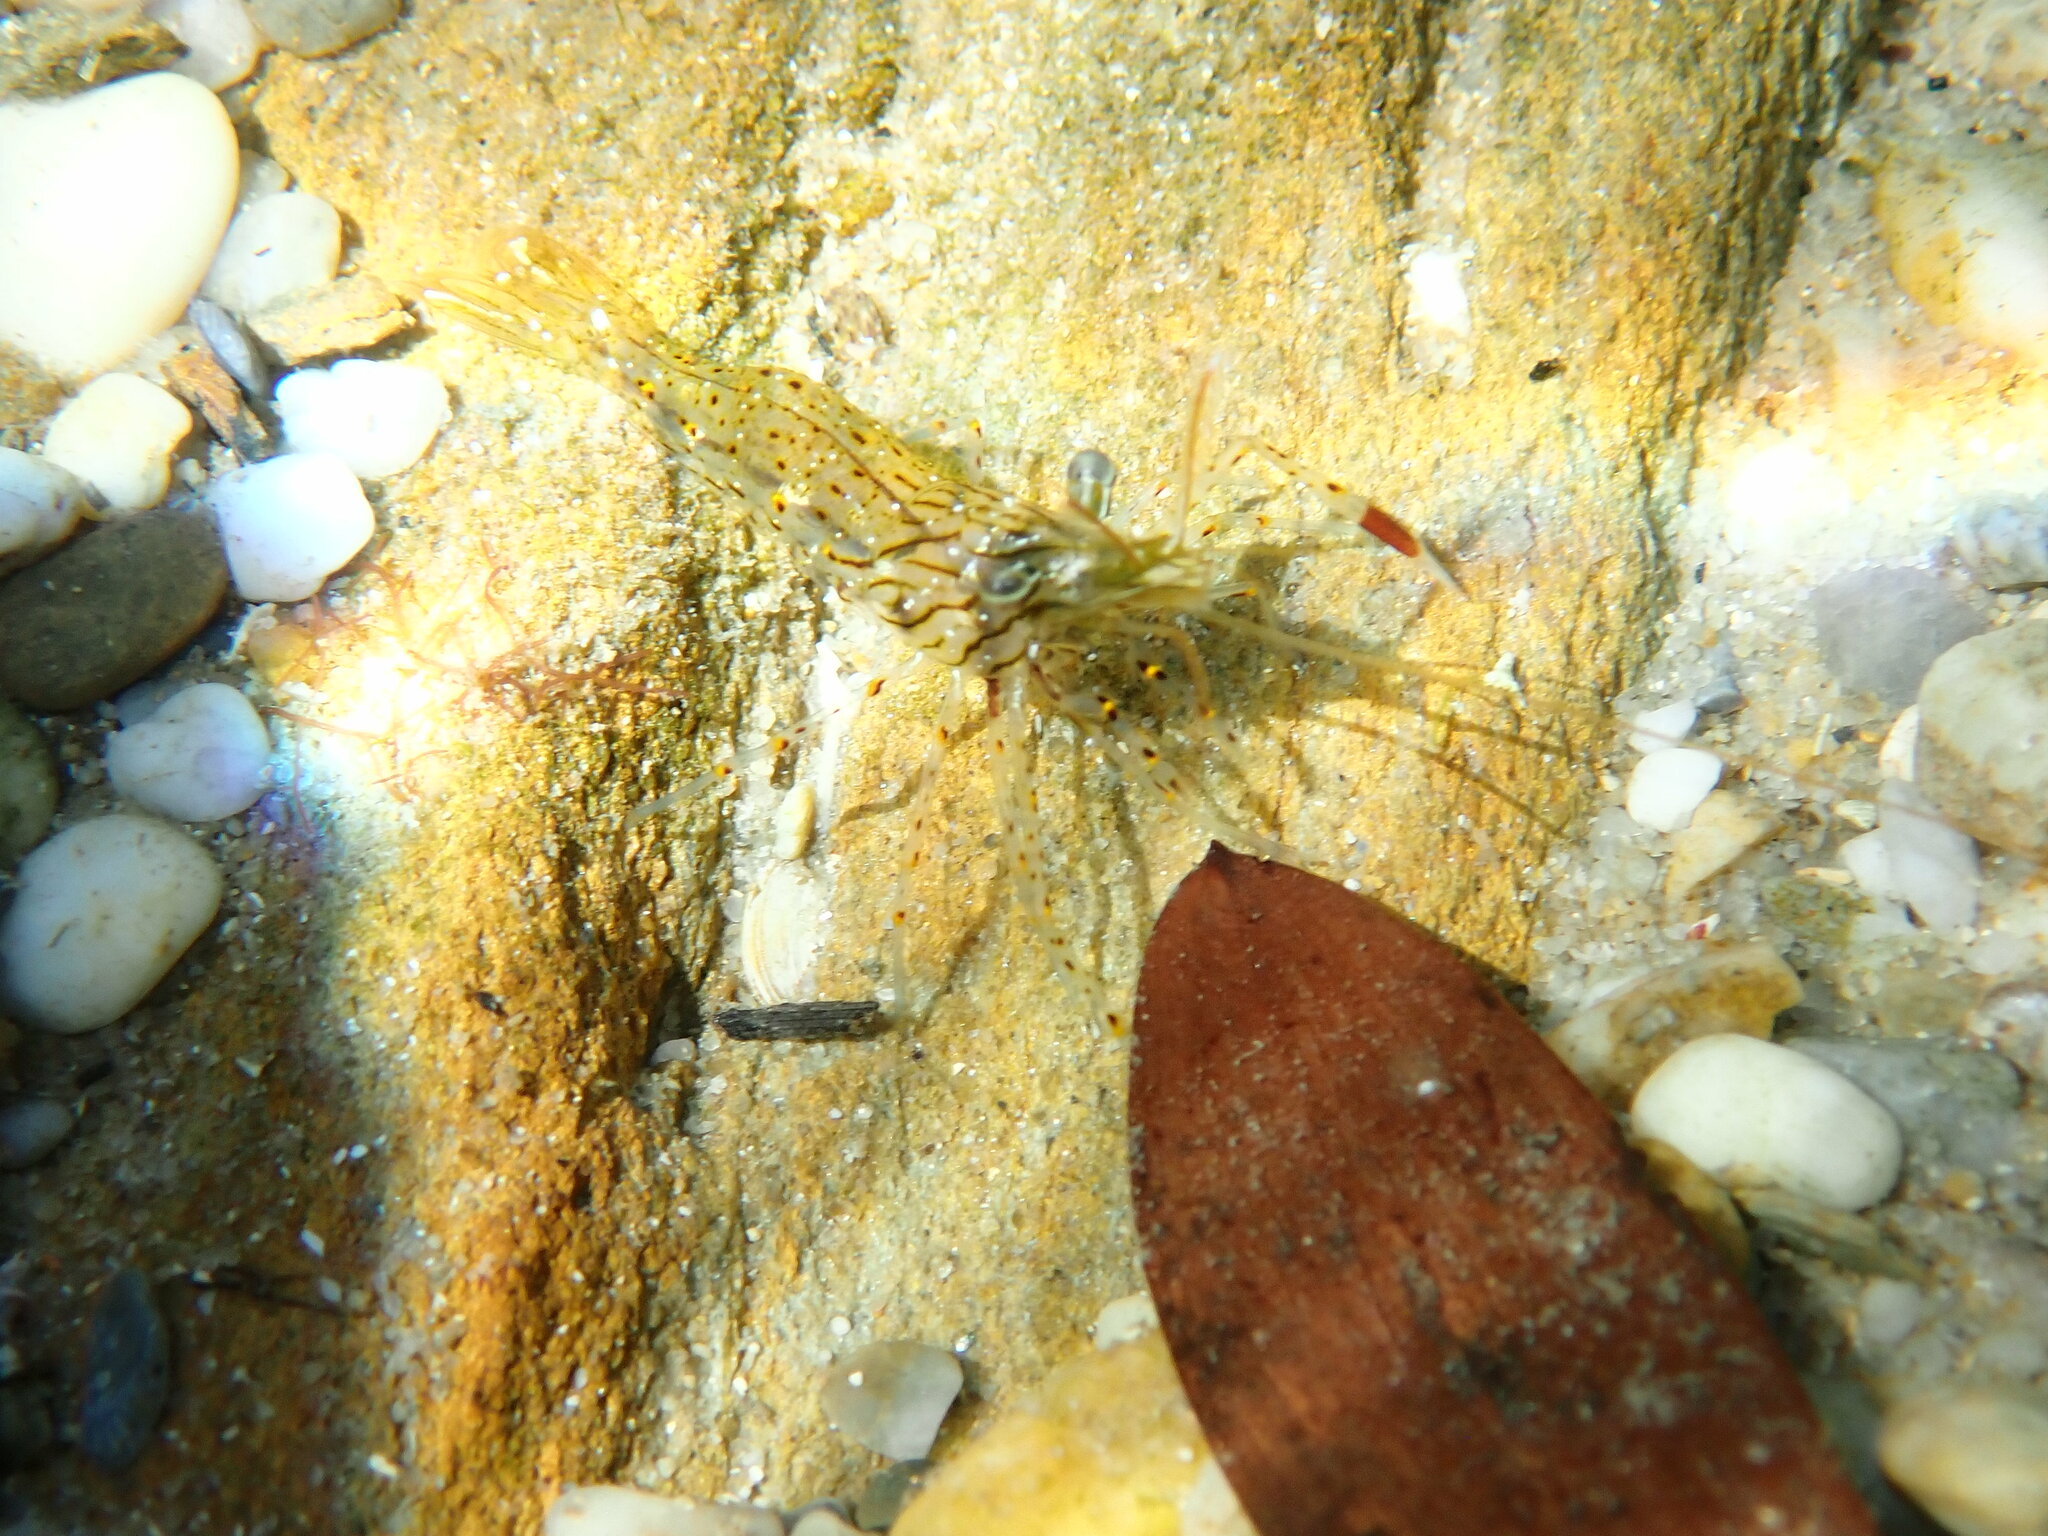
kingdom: Animalia
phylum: Arthropoda
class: Malacostraca
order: Decapoda
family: Palaemonidae
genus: Palaemon
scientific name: Palaemon serenus
